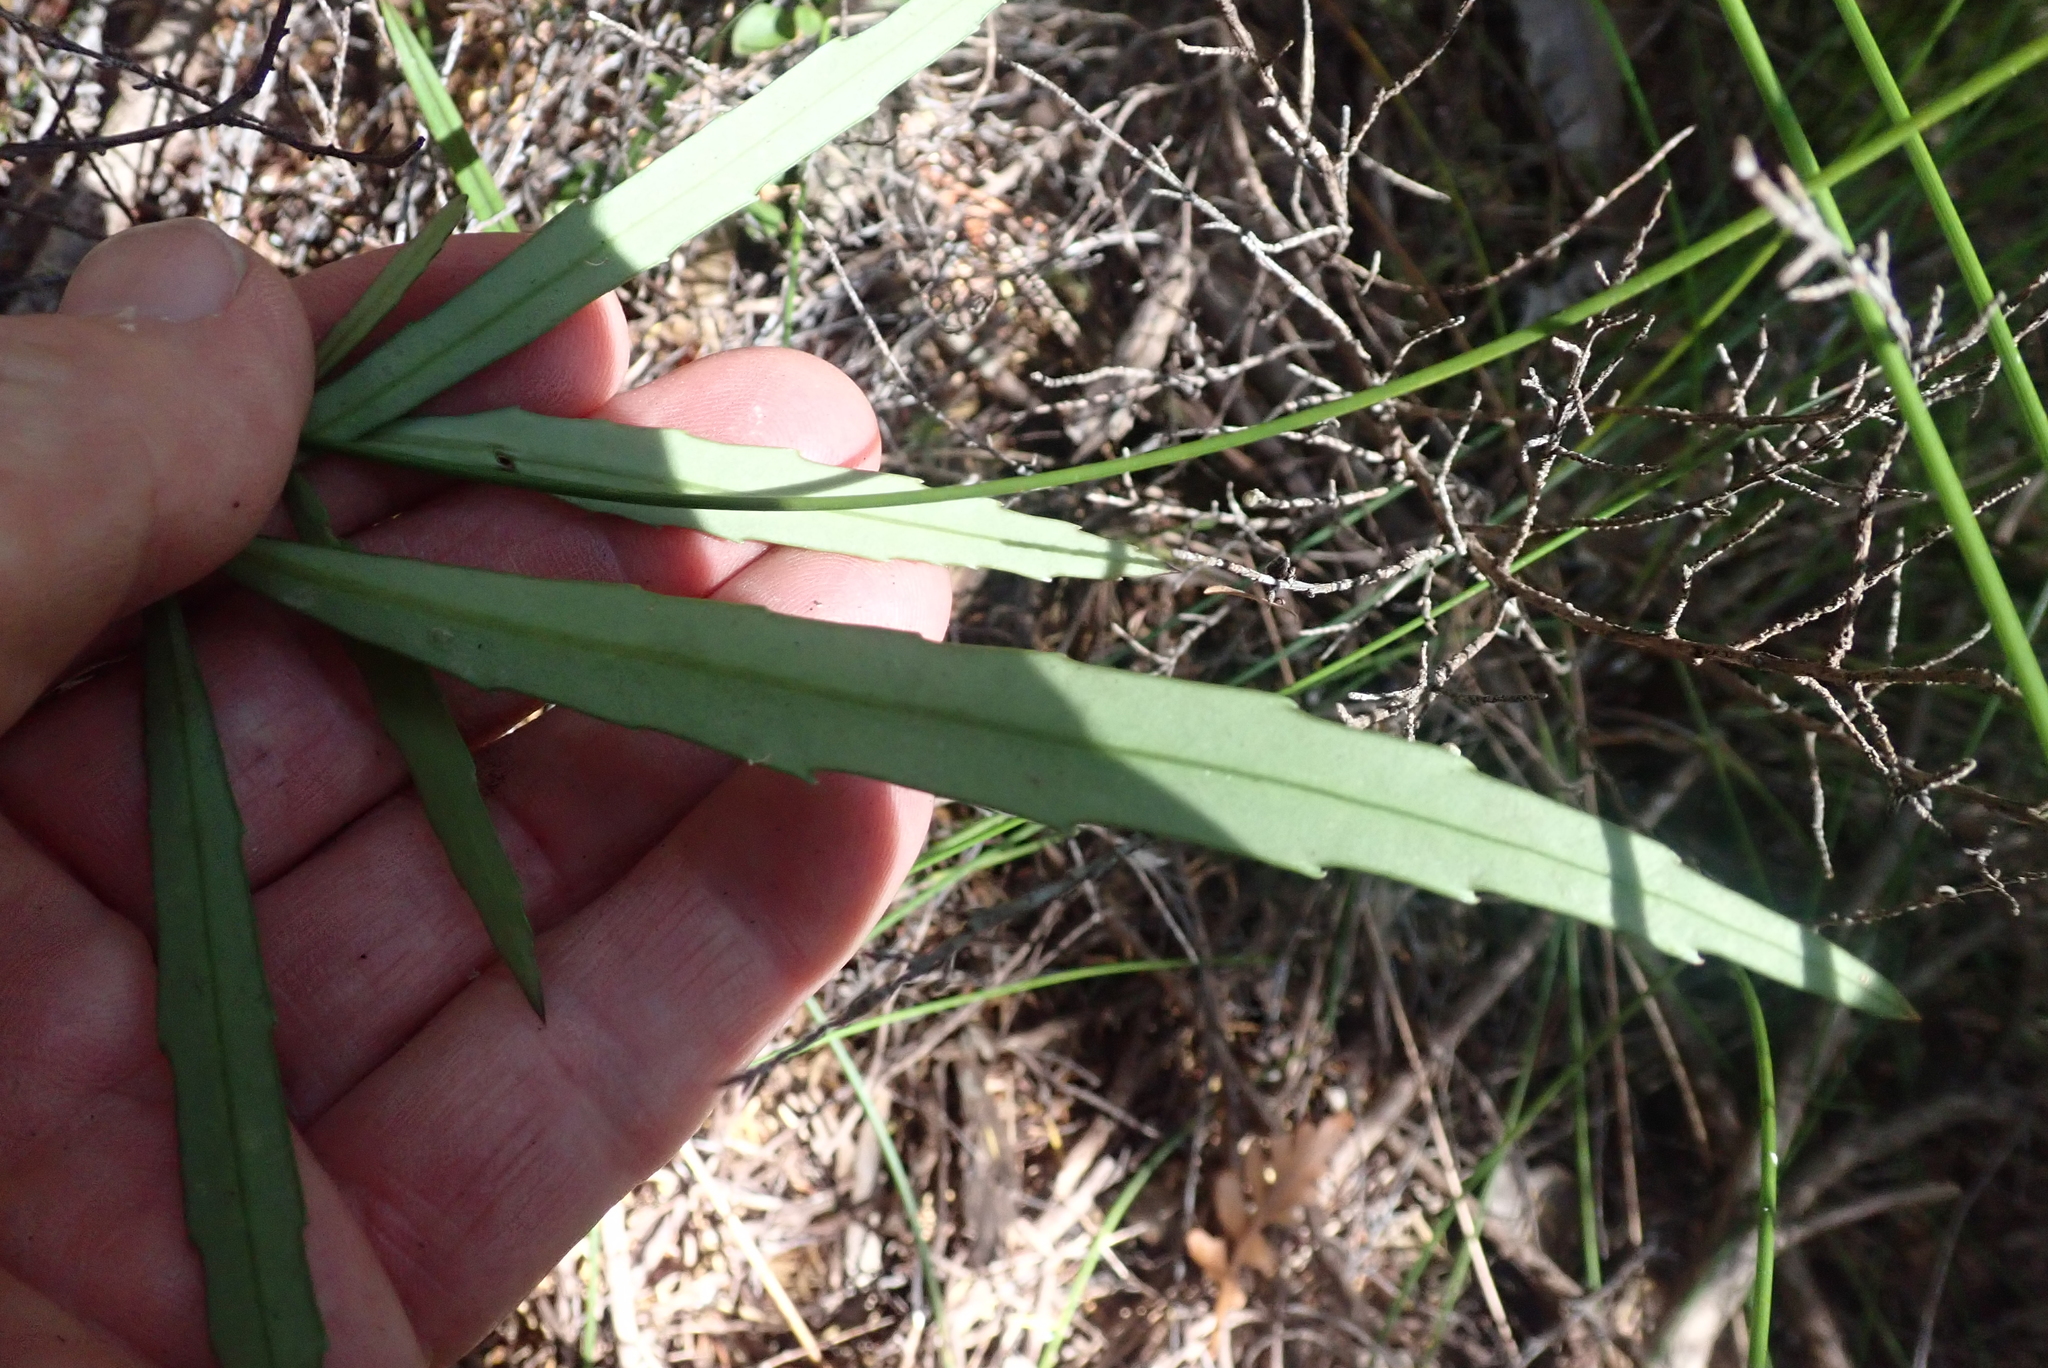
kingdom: Plantae
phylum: Tracheophyta
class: Magnoliopsida
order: Apiales
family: Araliaceae
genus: Pseudopanax
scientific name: Pseudopanax crassifolius
